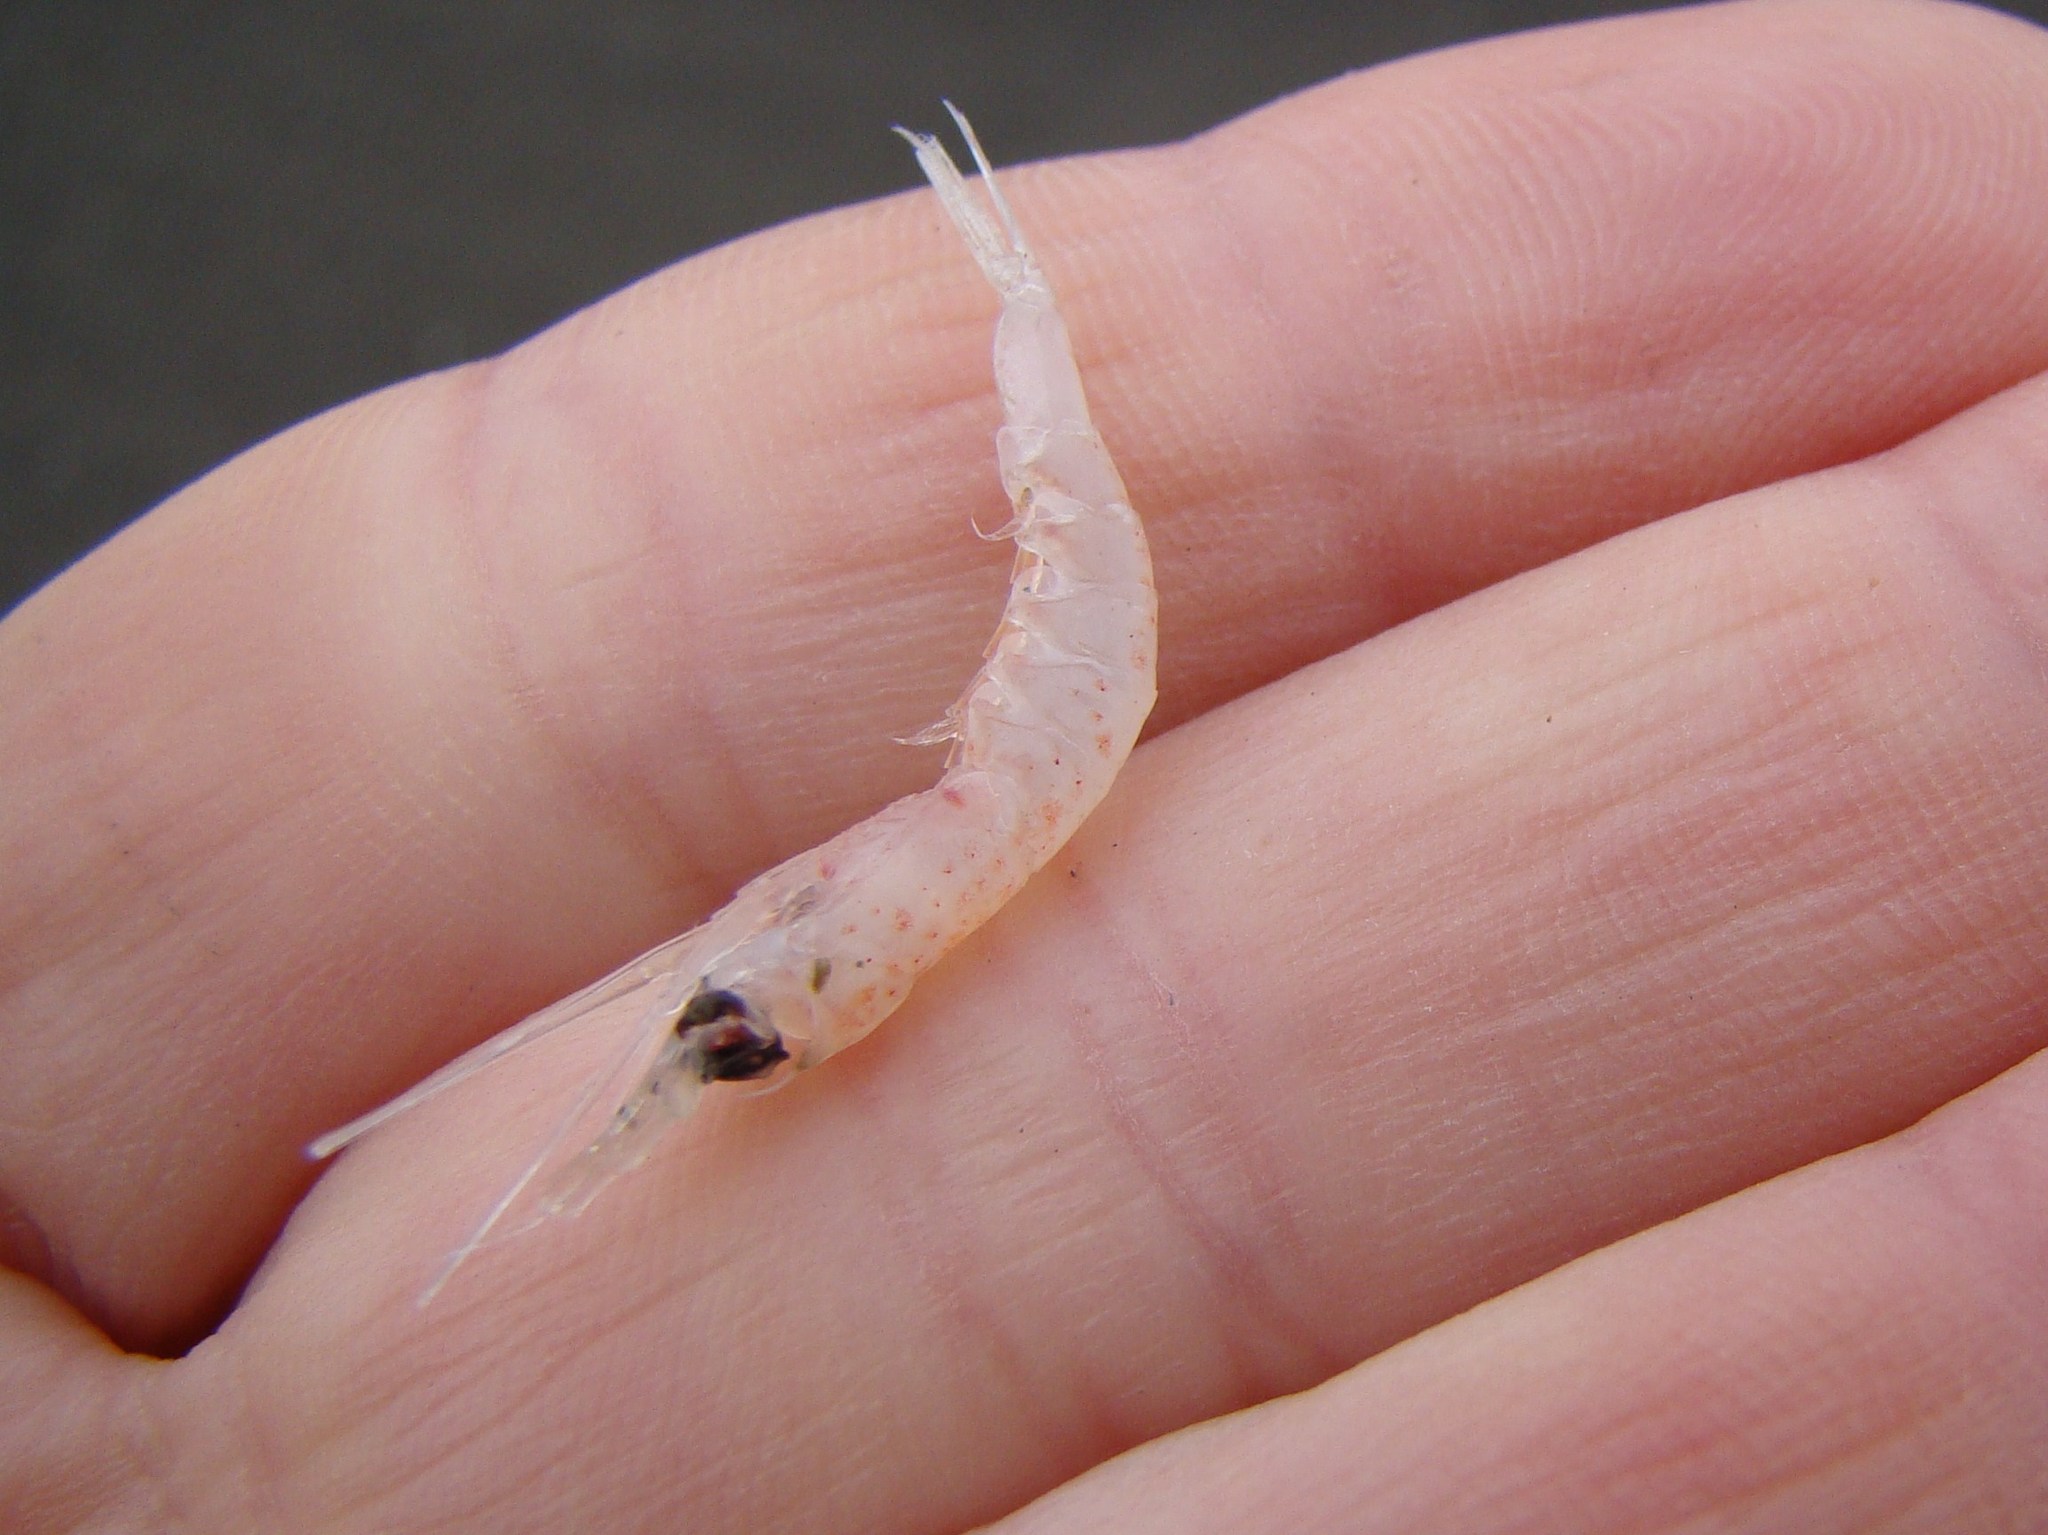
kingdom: Animalia
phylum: Arthropoda
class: Malacostraca
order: Euphausiacea
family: Euphausiidae
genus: Hansarsia
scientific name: Hansarsia megalops
